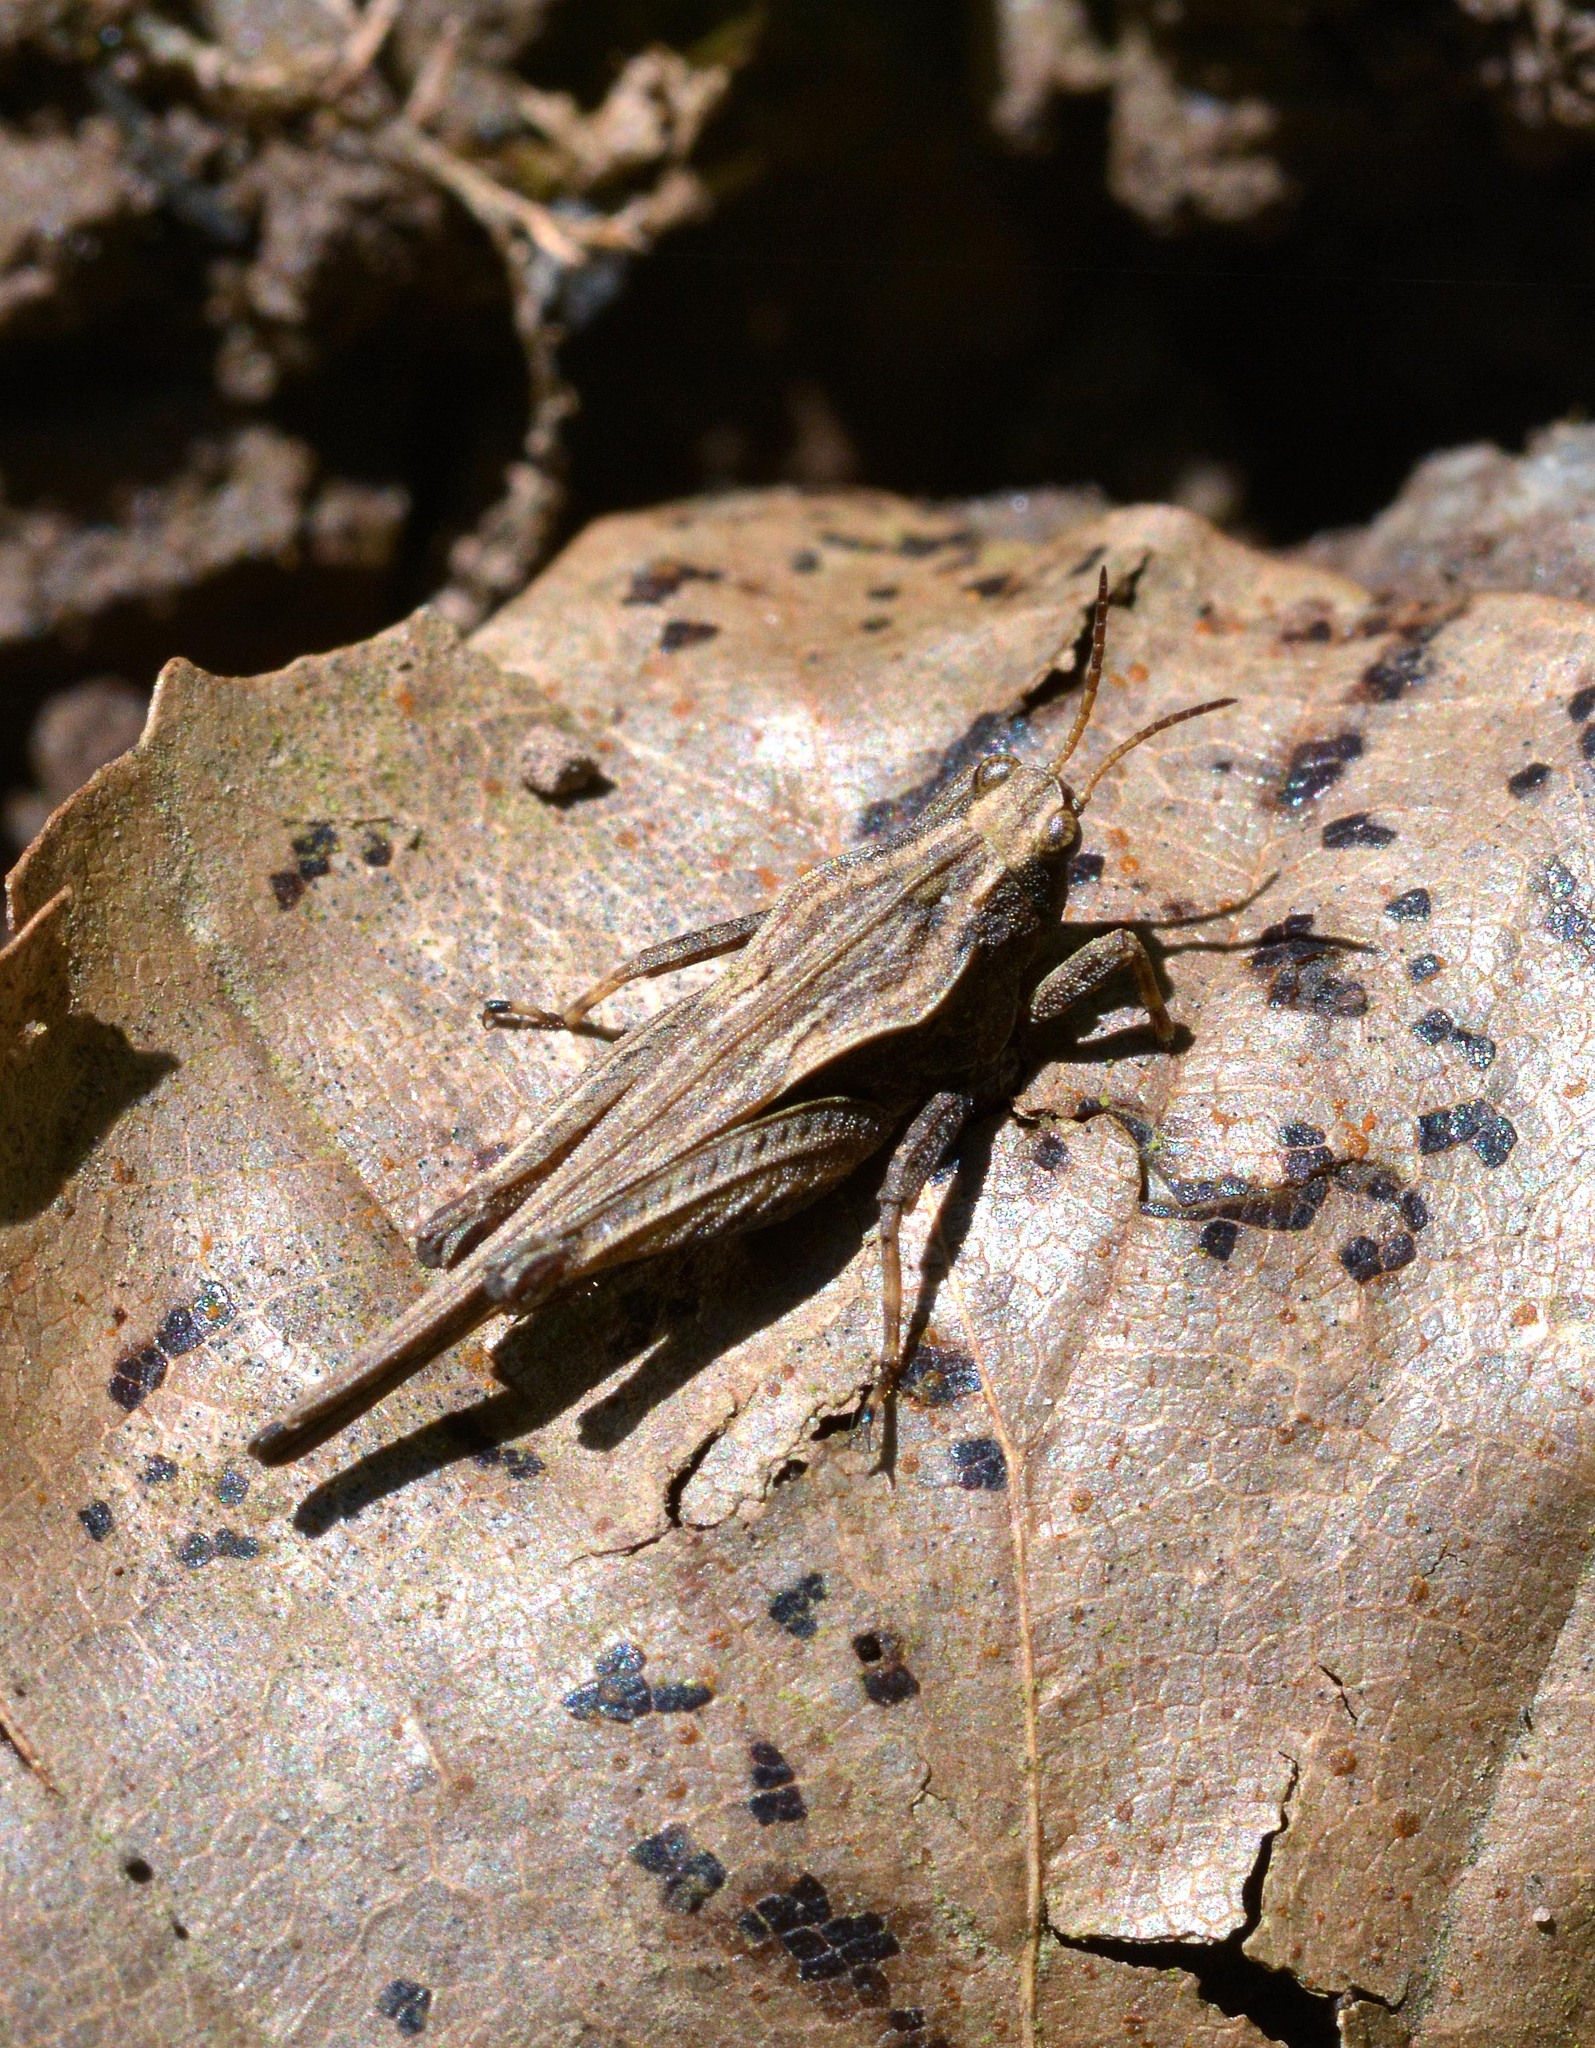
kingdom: Animalia
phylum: Arthropoda
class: Insecta
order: Orthoptera
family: Tetrigidae
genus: Tetrix
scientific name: Tetrix subulata
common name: Slender ground-hopper
